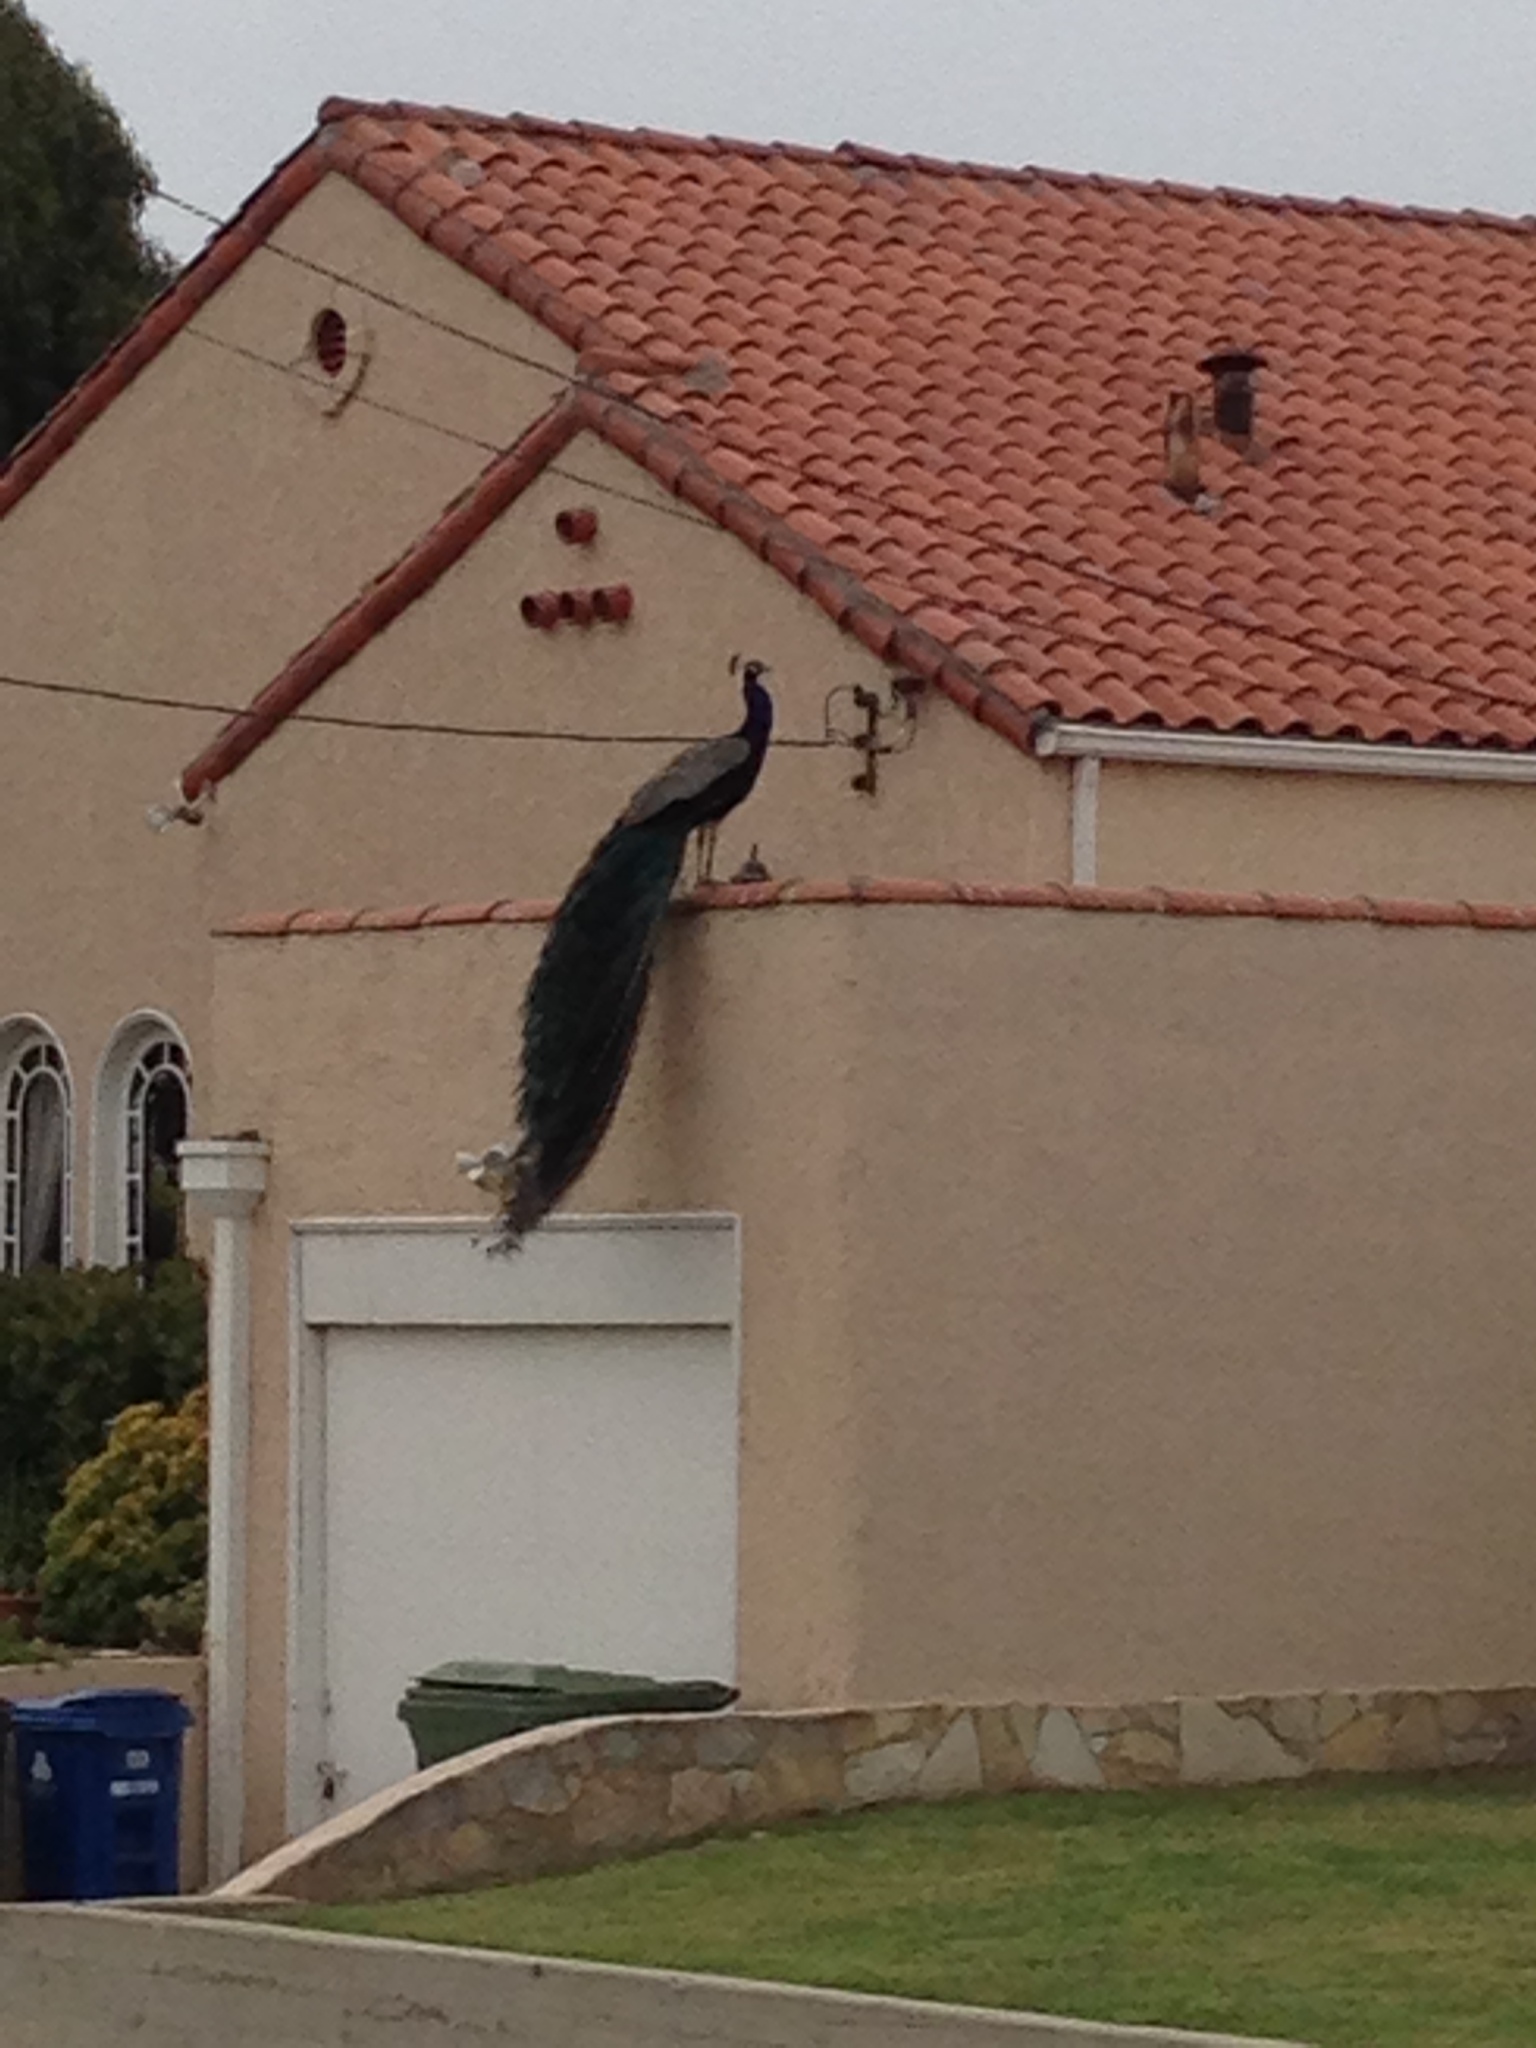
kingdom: Animalia
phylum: Chordata
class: Aves
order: Galliformes
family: Phasianidae
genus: Pavo
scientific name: Pavo cristatus
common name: Indian peafowl
